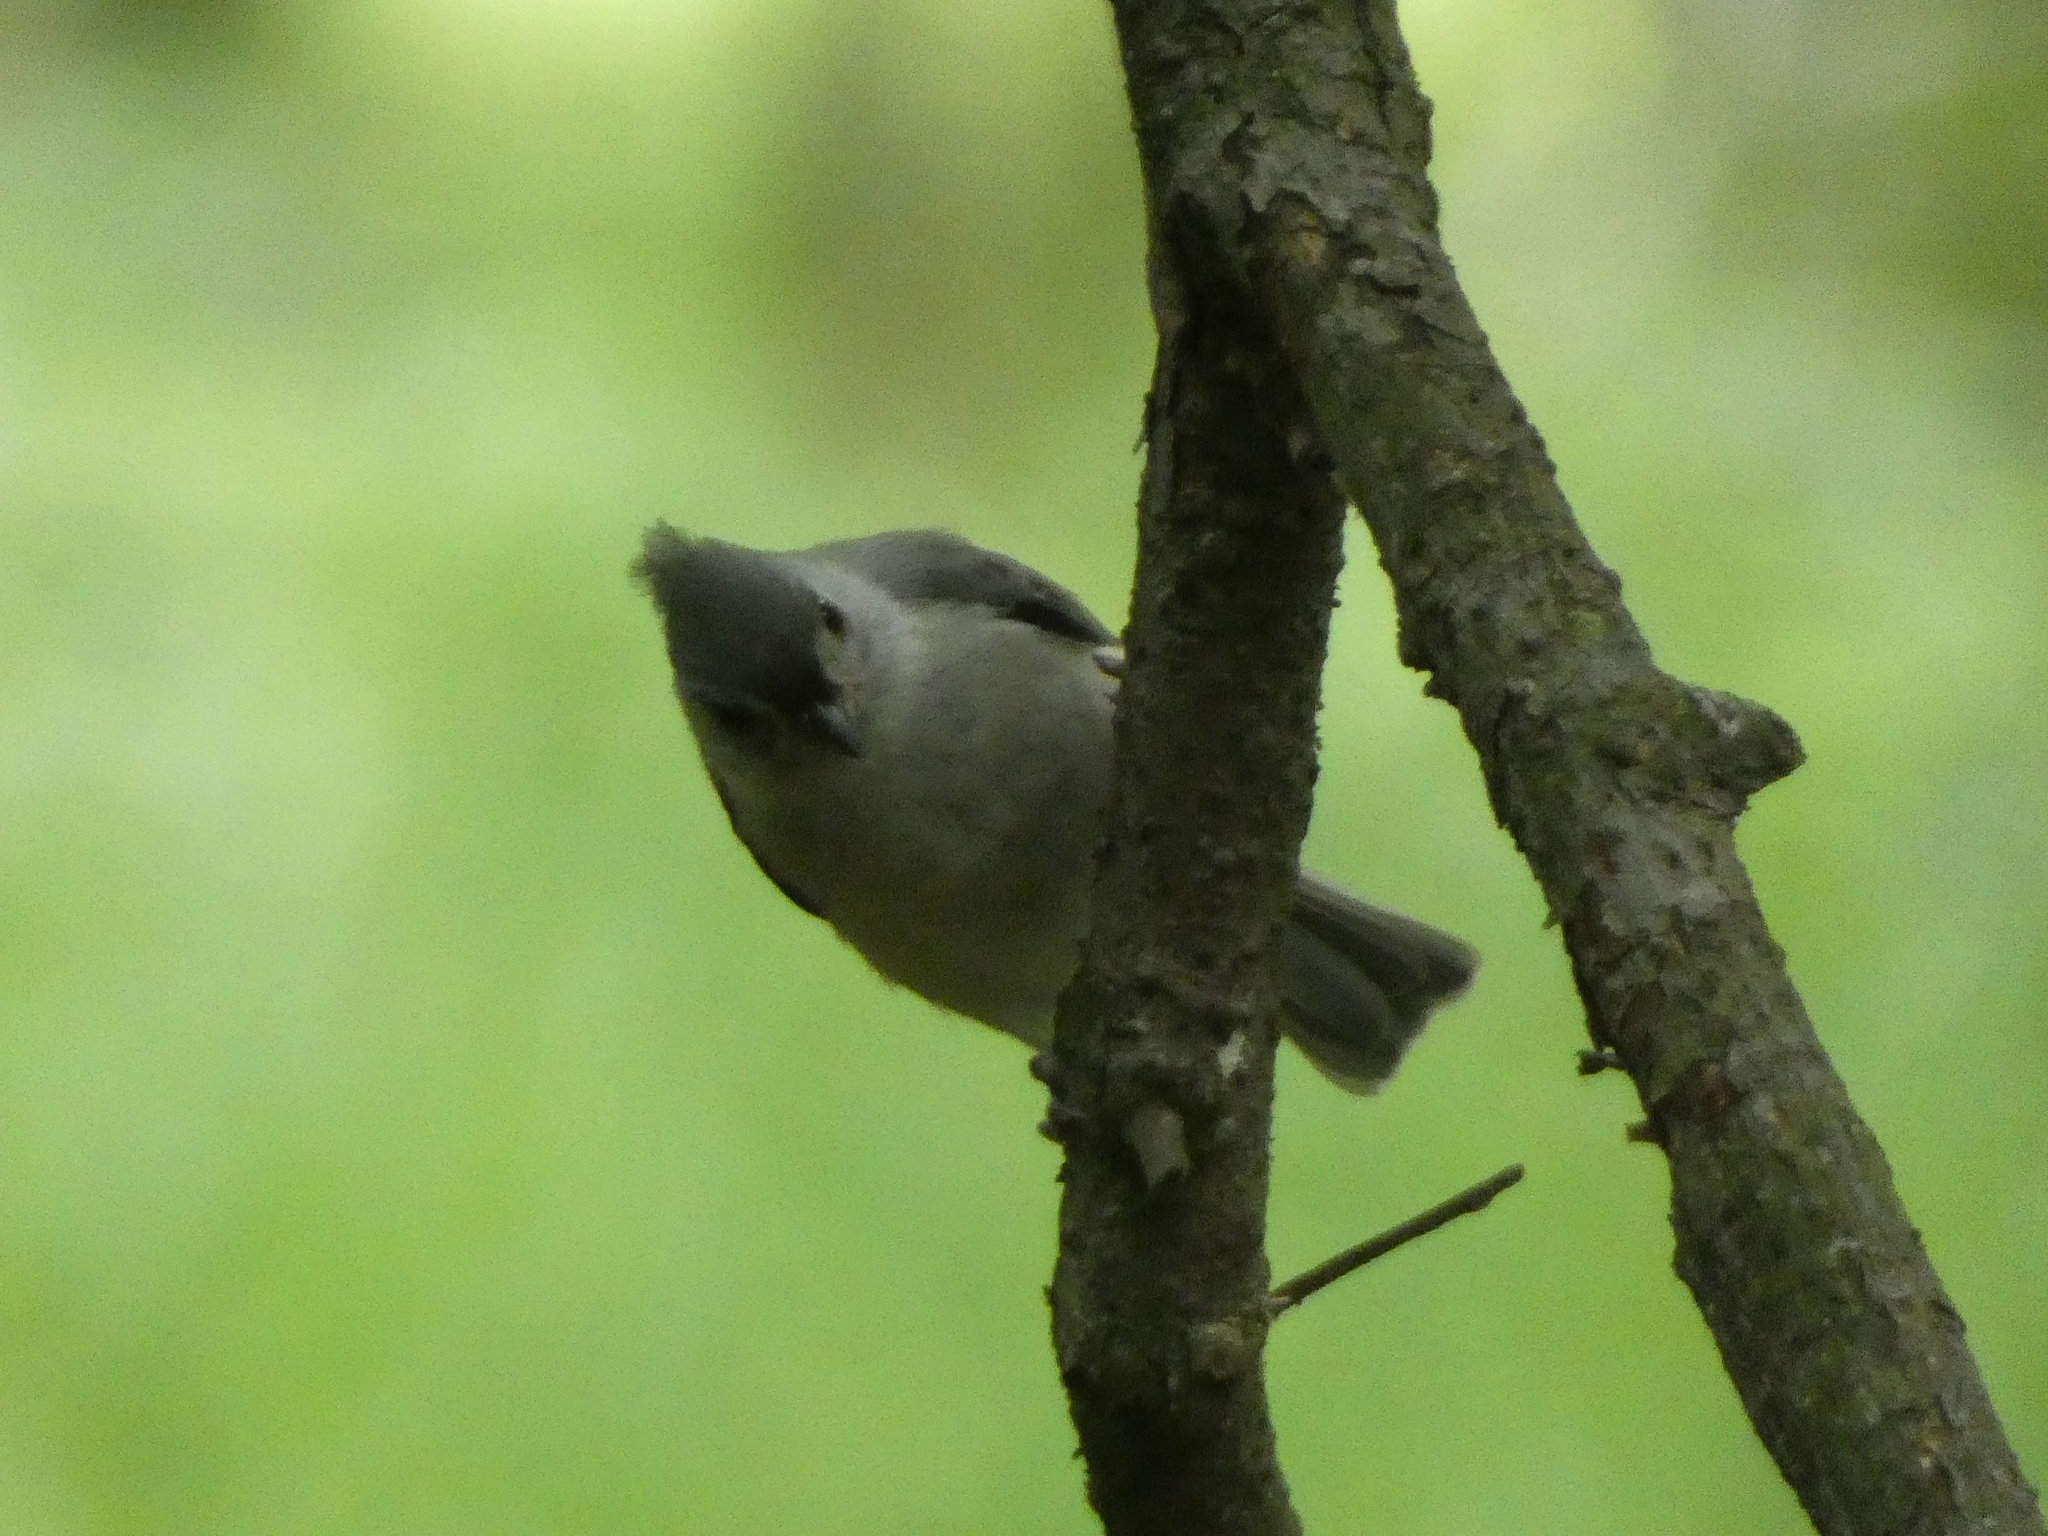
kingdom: Animalia
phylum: Chordata
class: Aves
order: Passeriformes
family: Paridae
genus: Baeolophus
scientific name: Baeolophus bicolor
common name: Tufted titmouse
